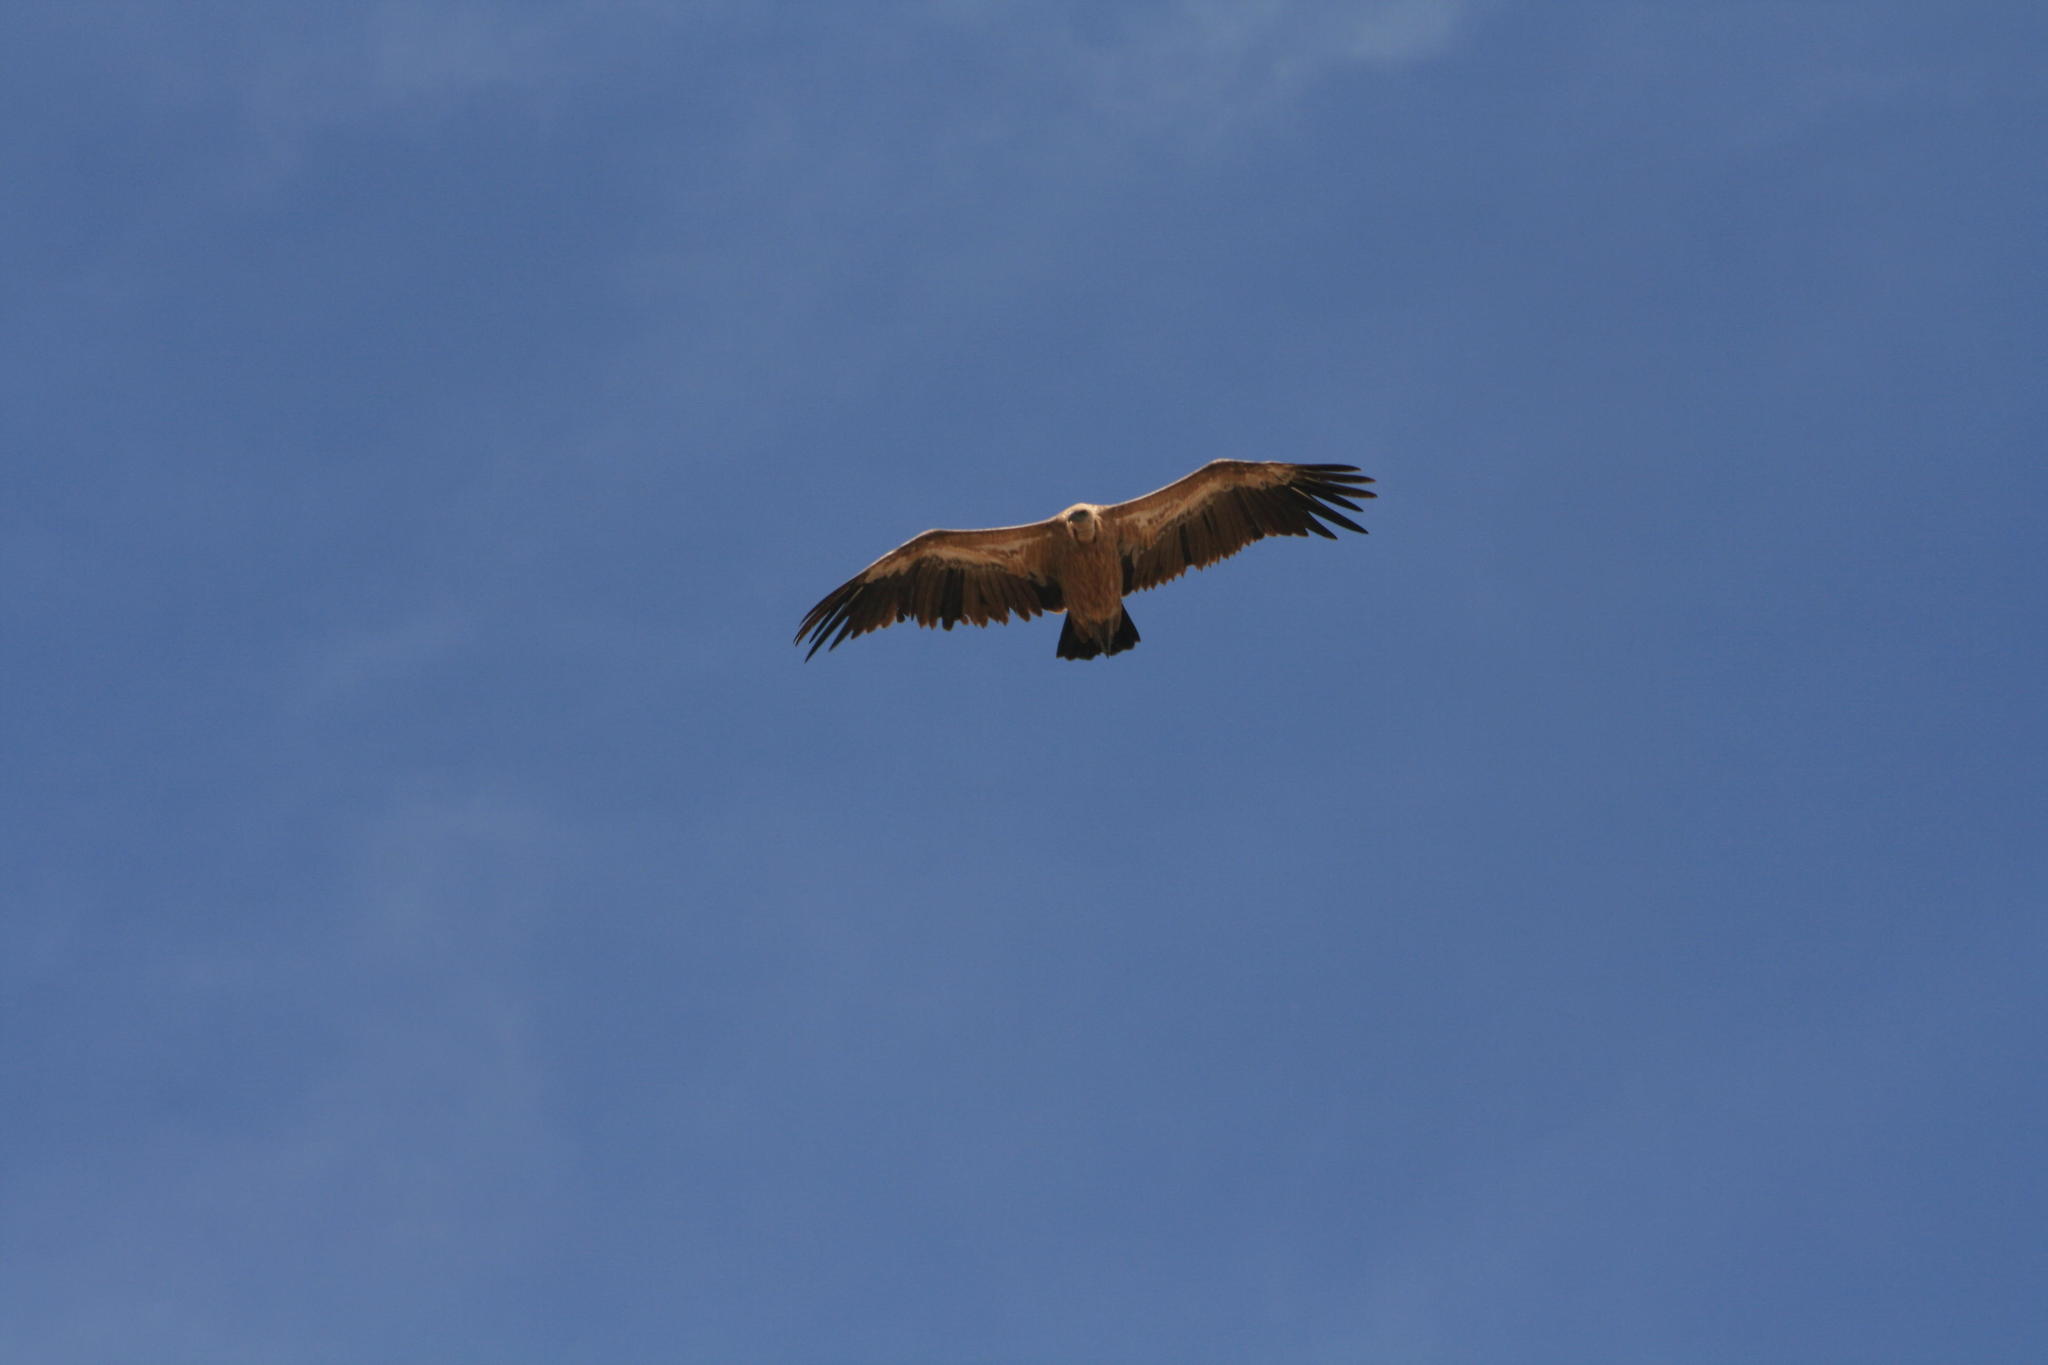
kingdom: Animalia
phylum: Chordata
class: Aves
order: Accipitriformes
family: Accipitridae
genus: Gyps
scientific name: Gyps fulvus
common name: Griffon vulture
